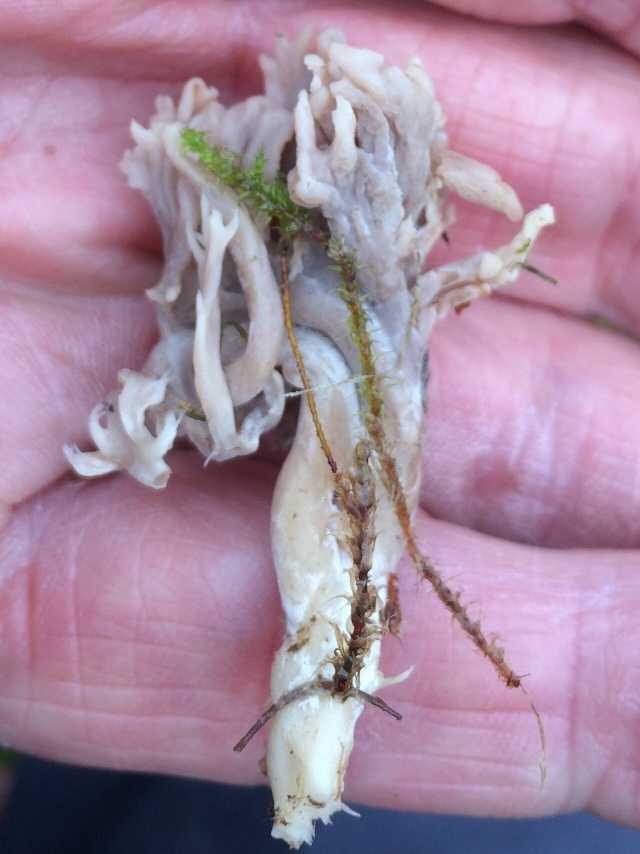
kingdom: Fungi
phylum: Basidiomycota
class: Agaricomycetes
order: Cantharellales
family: Hydnaceae
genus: Clavulina
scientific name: Clavulina cinerea
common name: Grey coral
